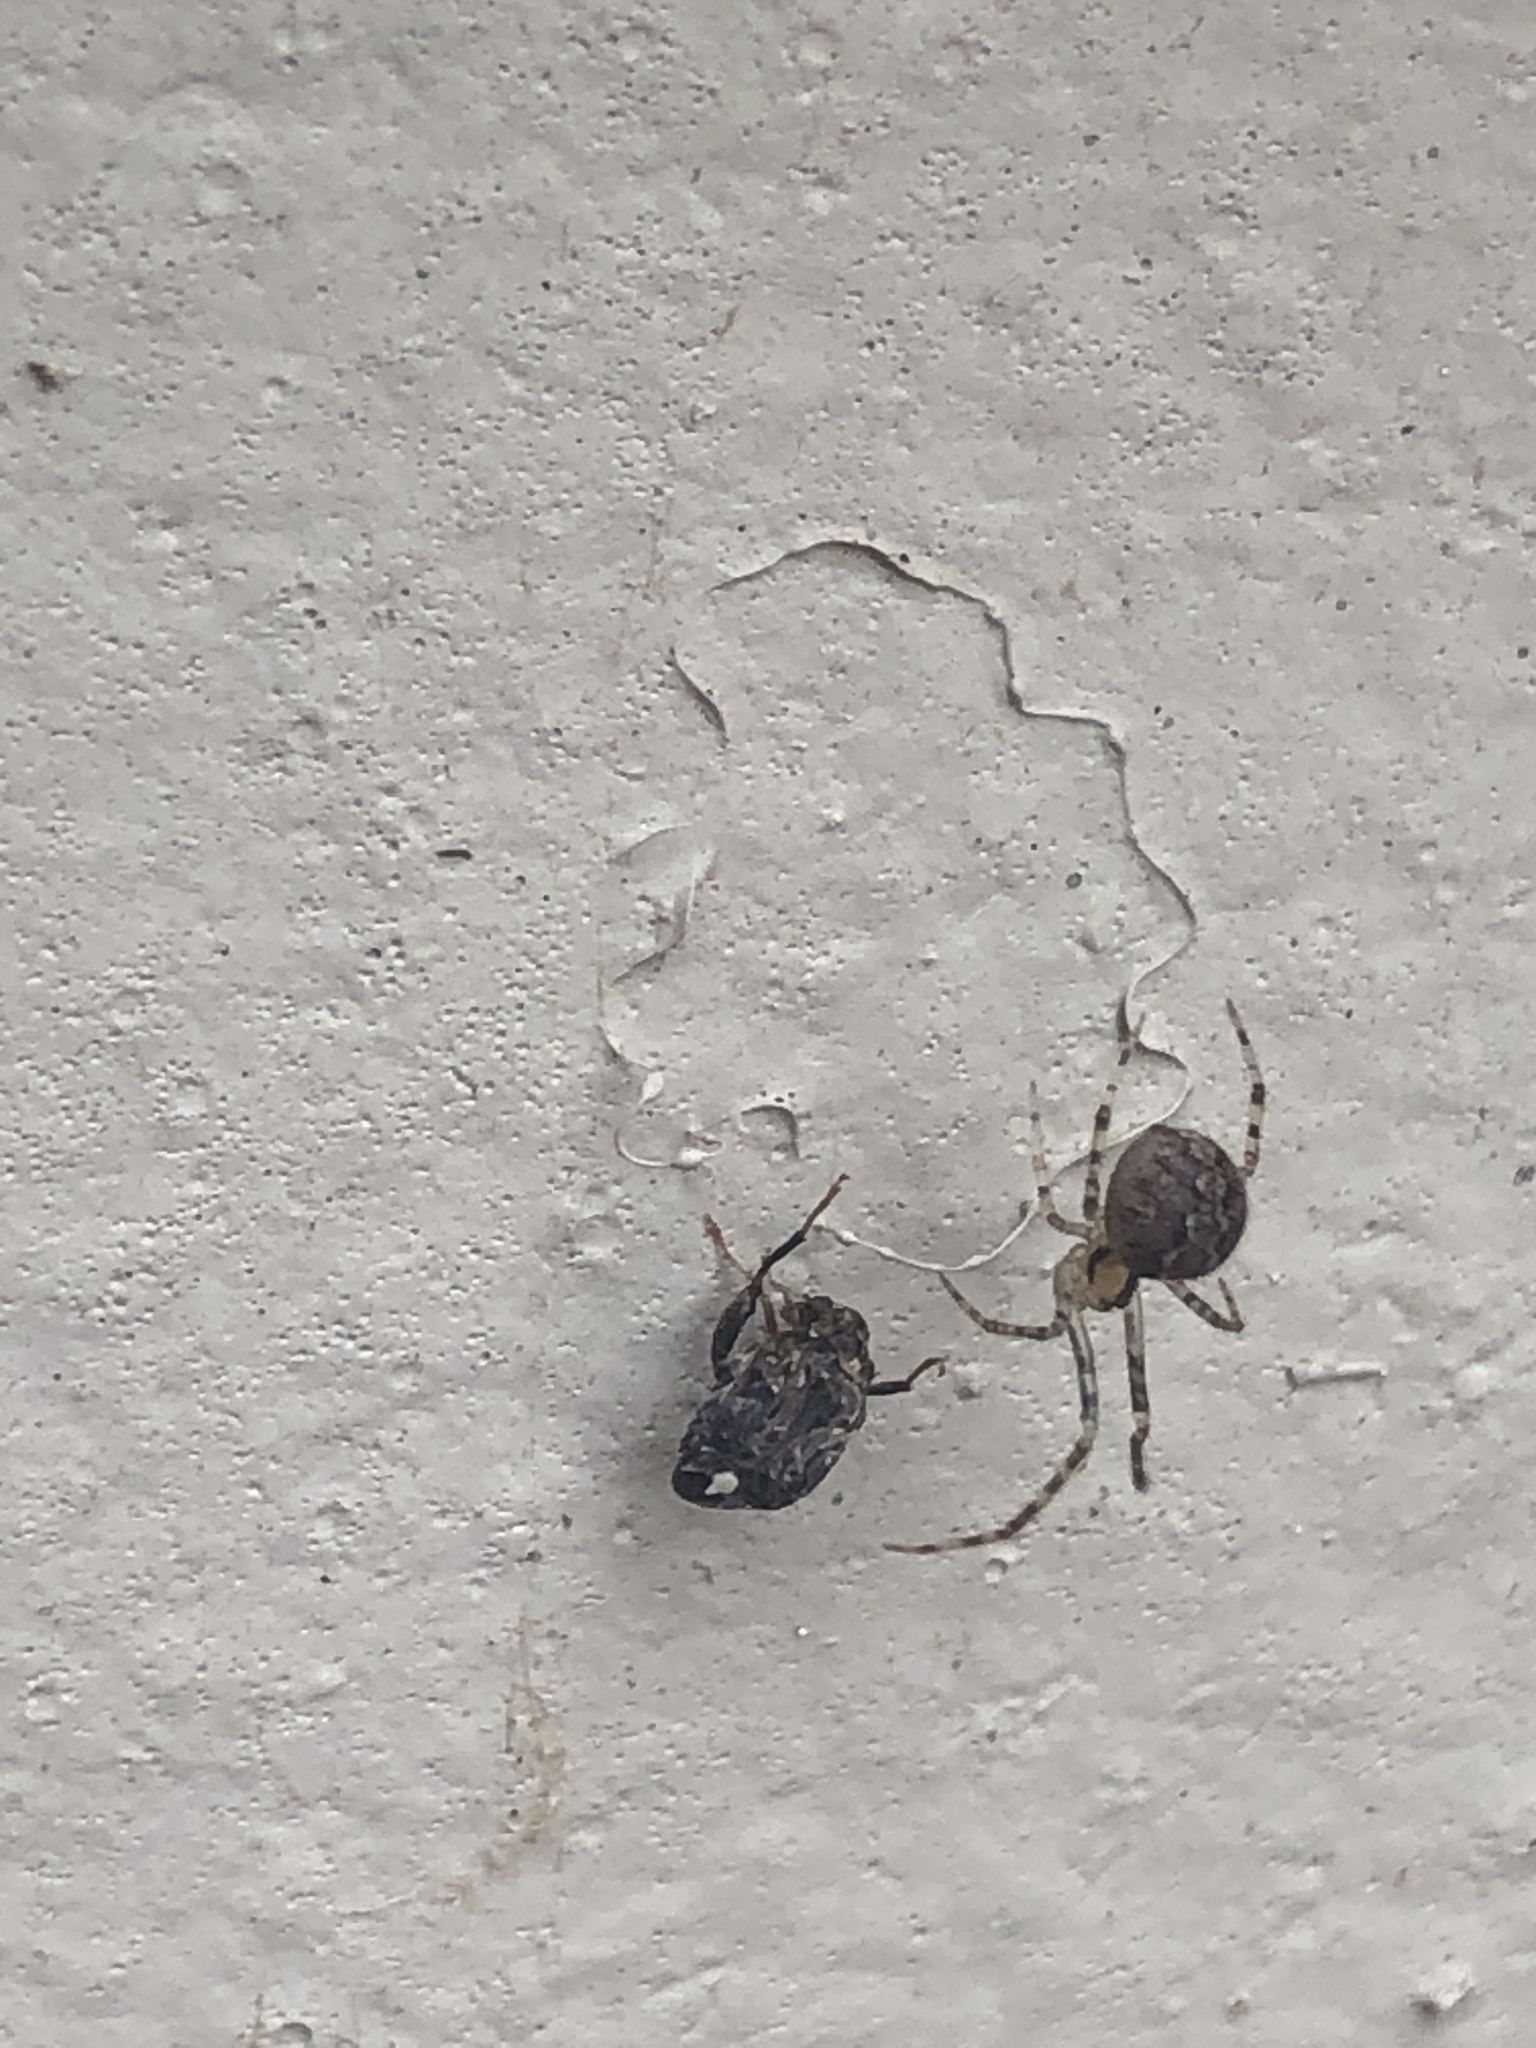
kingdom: Animalia
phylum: Arthropoda
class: Arachnida
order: Araneae
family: Theridiidae
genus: Steatoda
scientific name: Steatoda triangulosa
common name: Triangulate bud spider
